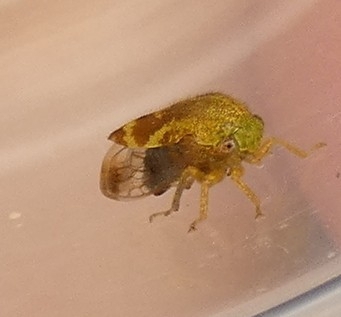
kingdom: Animalia
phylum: Arthropoda
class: Insecta
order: Hemiptera
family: Membracidae
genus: Ophiderma
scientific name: Ophiderma evelyna
